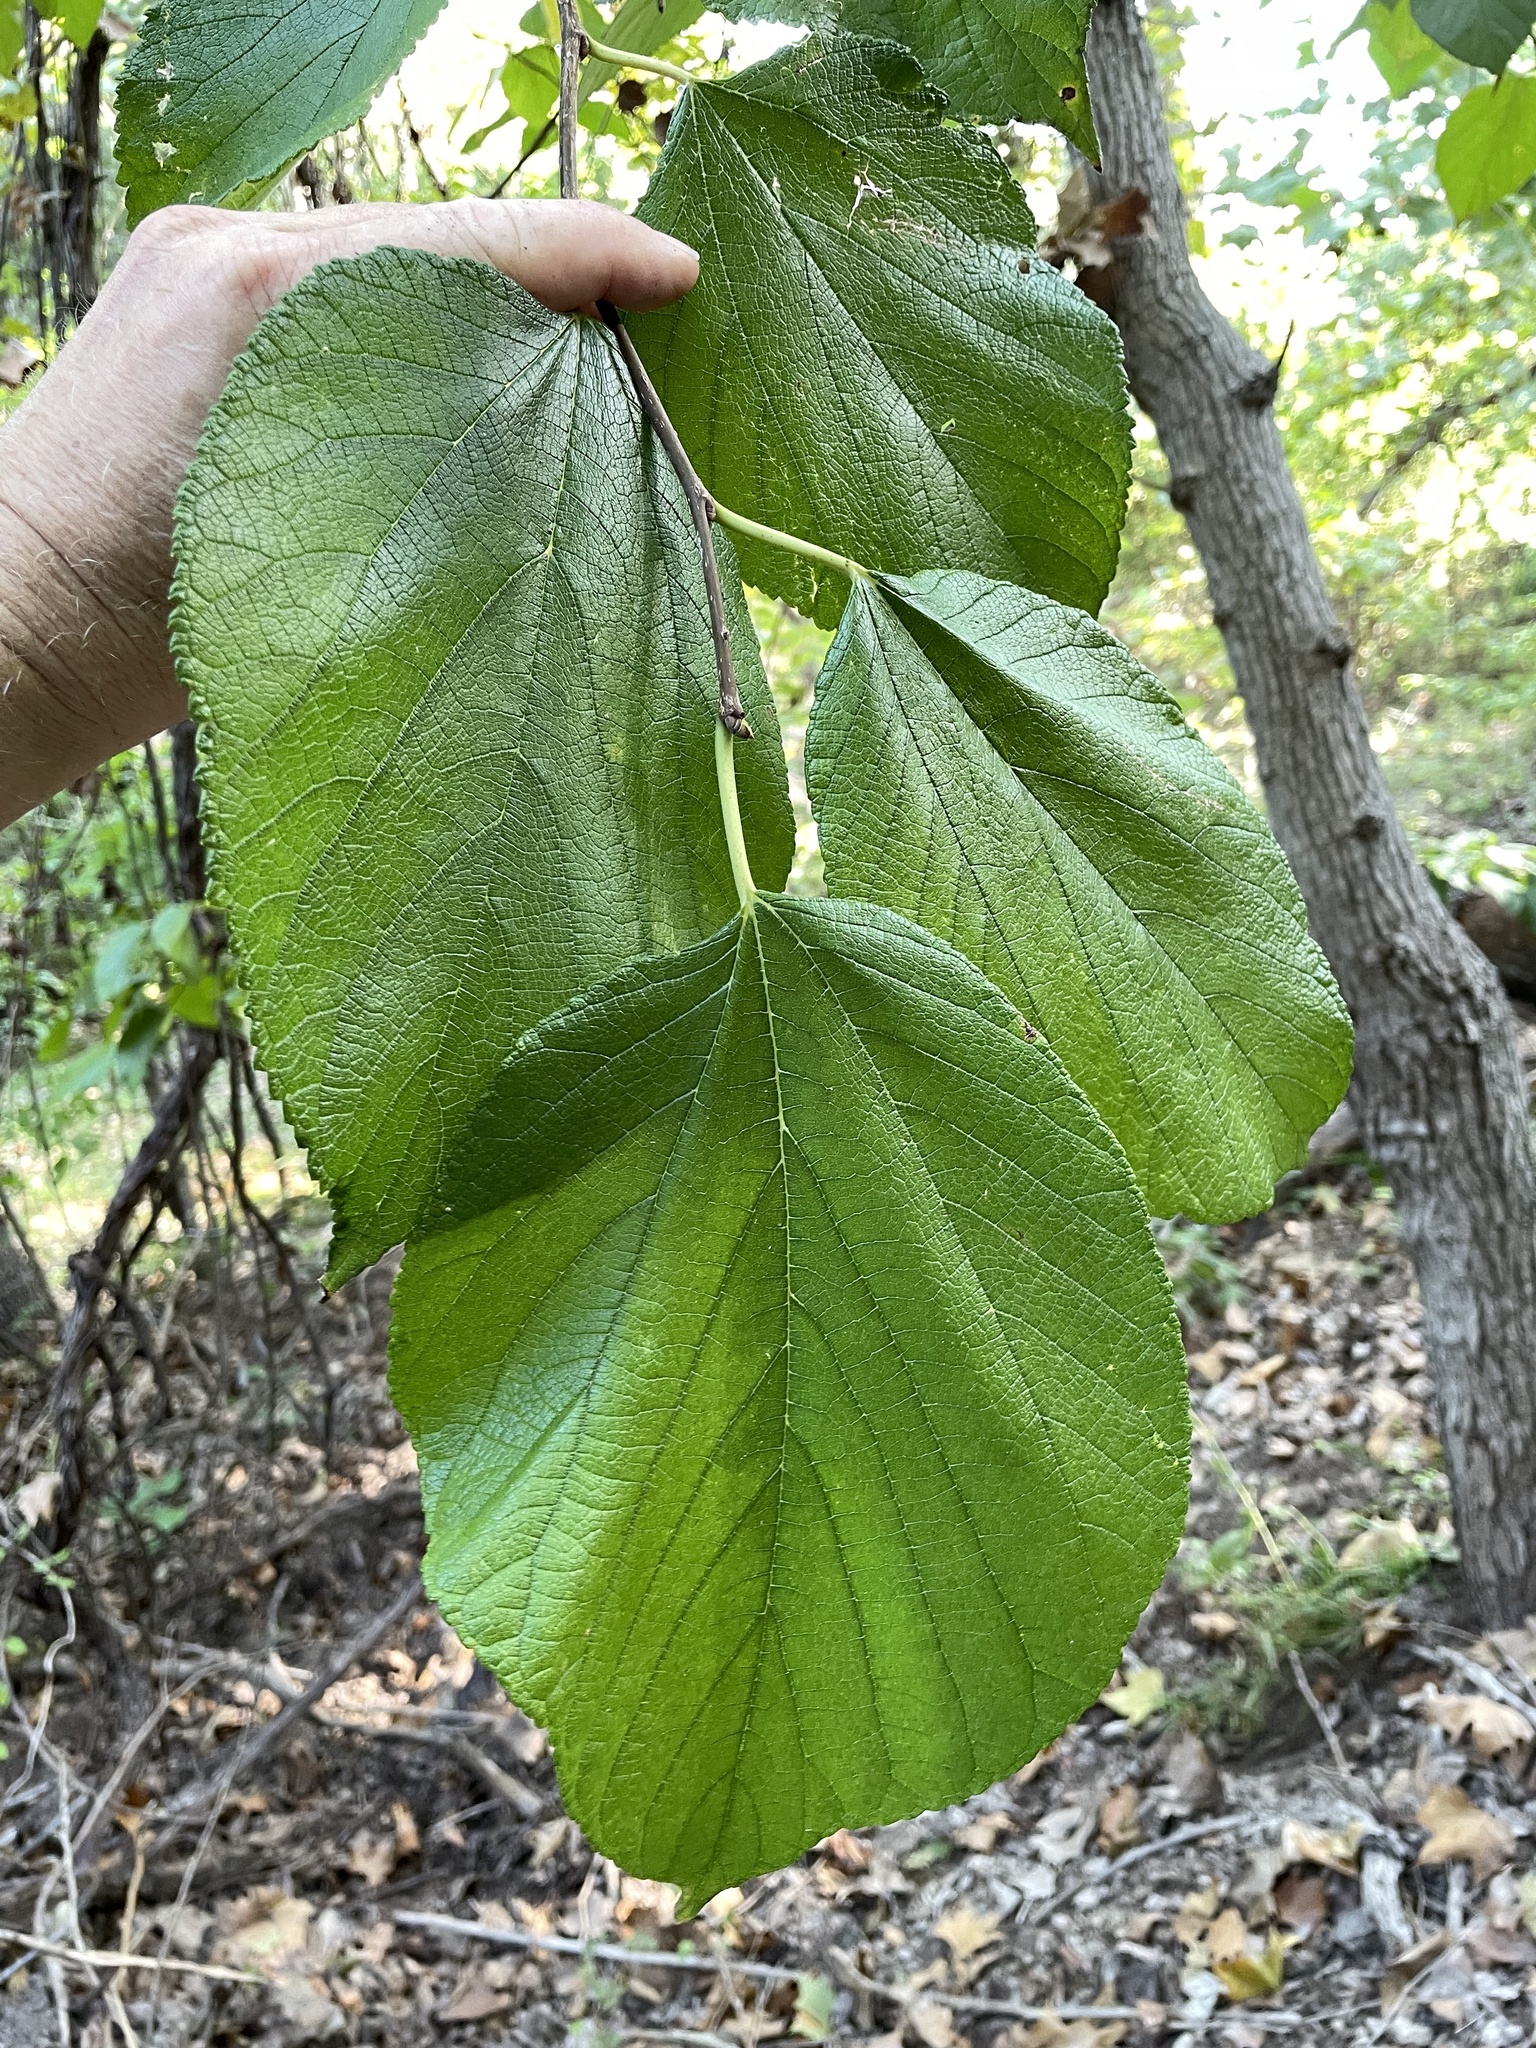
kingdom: Plantae
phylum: Tracheophyta
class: Magnoliopsida
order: Rosales
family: Moraceae
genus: Morus
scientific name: Morus rubra
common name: Red mulberry
